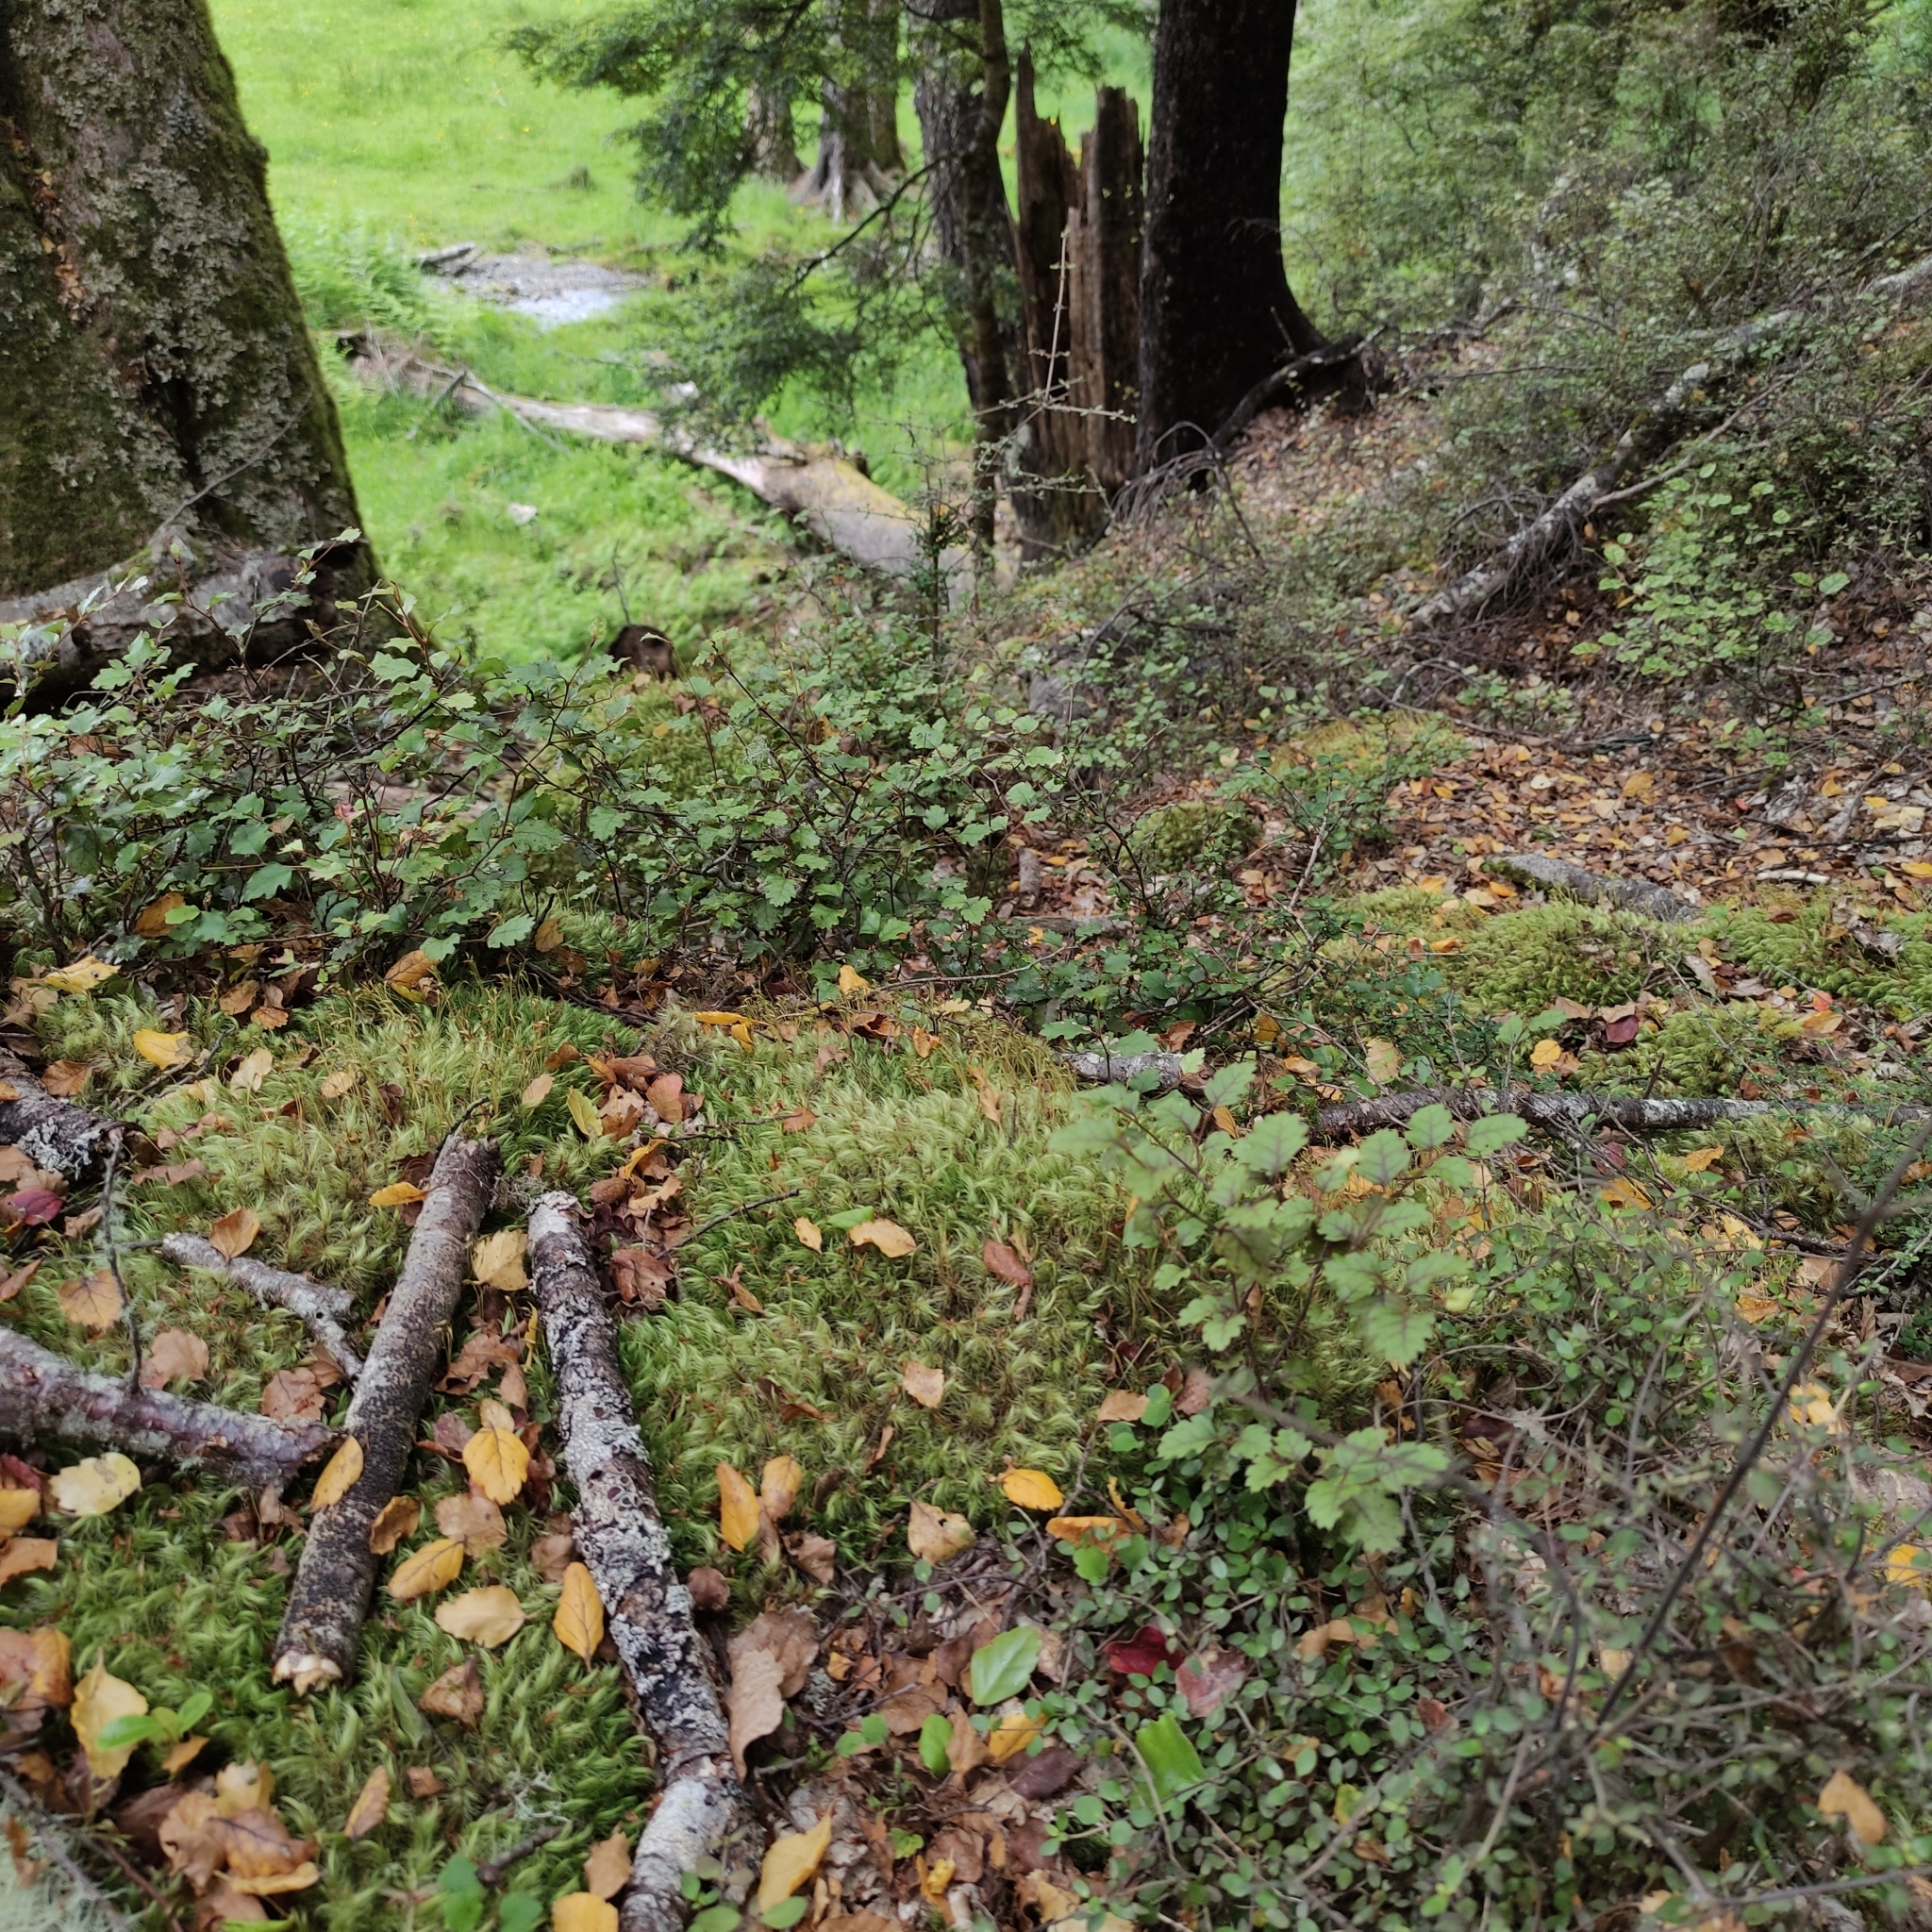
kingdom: Plantae
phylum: Tracheophyta
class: Magnoliopsida
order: Fagales
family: Nothofagaceae
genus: Nothofagus
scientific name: Nothofagus fusca
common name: Red beech
